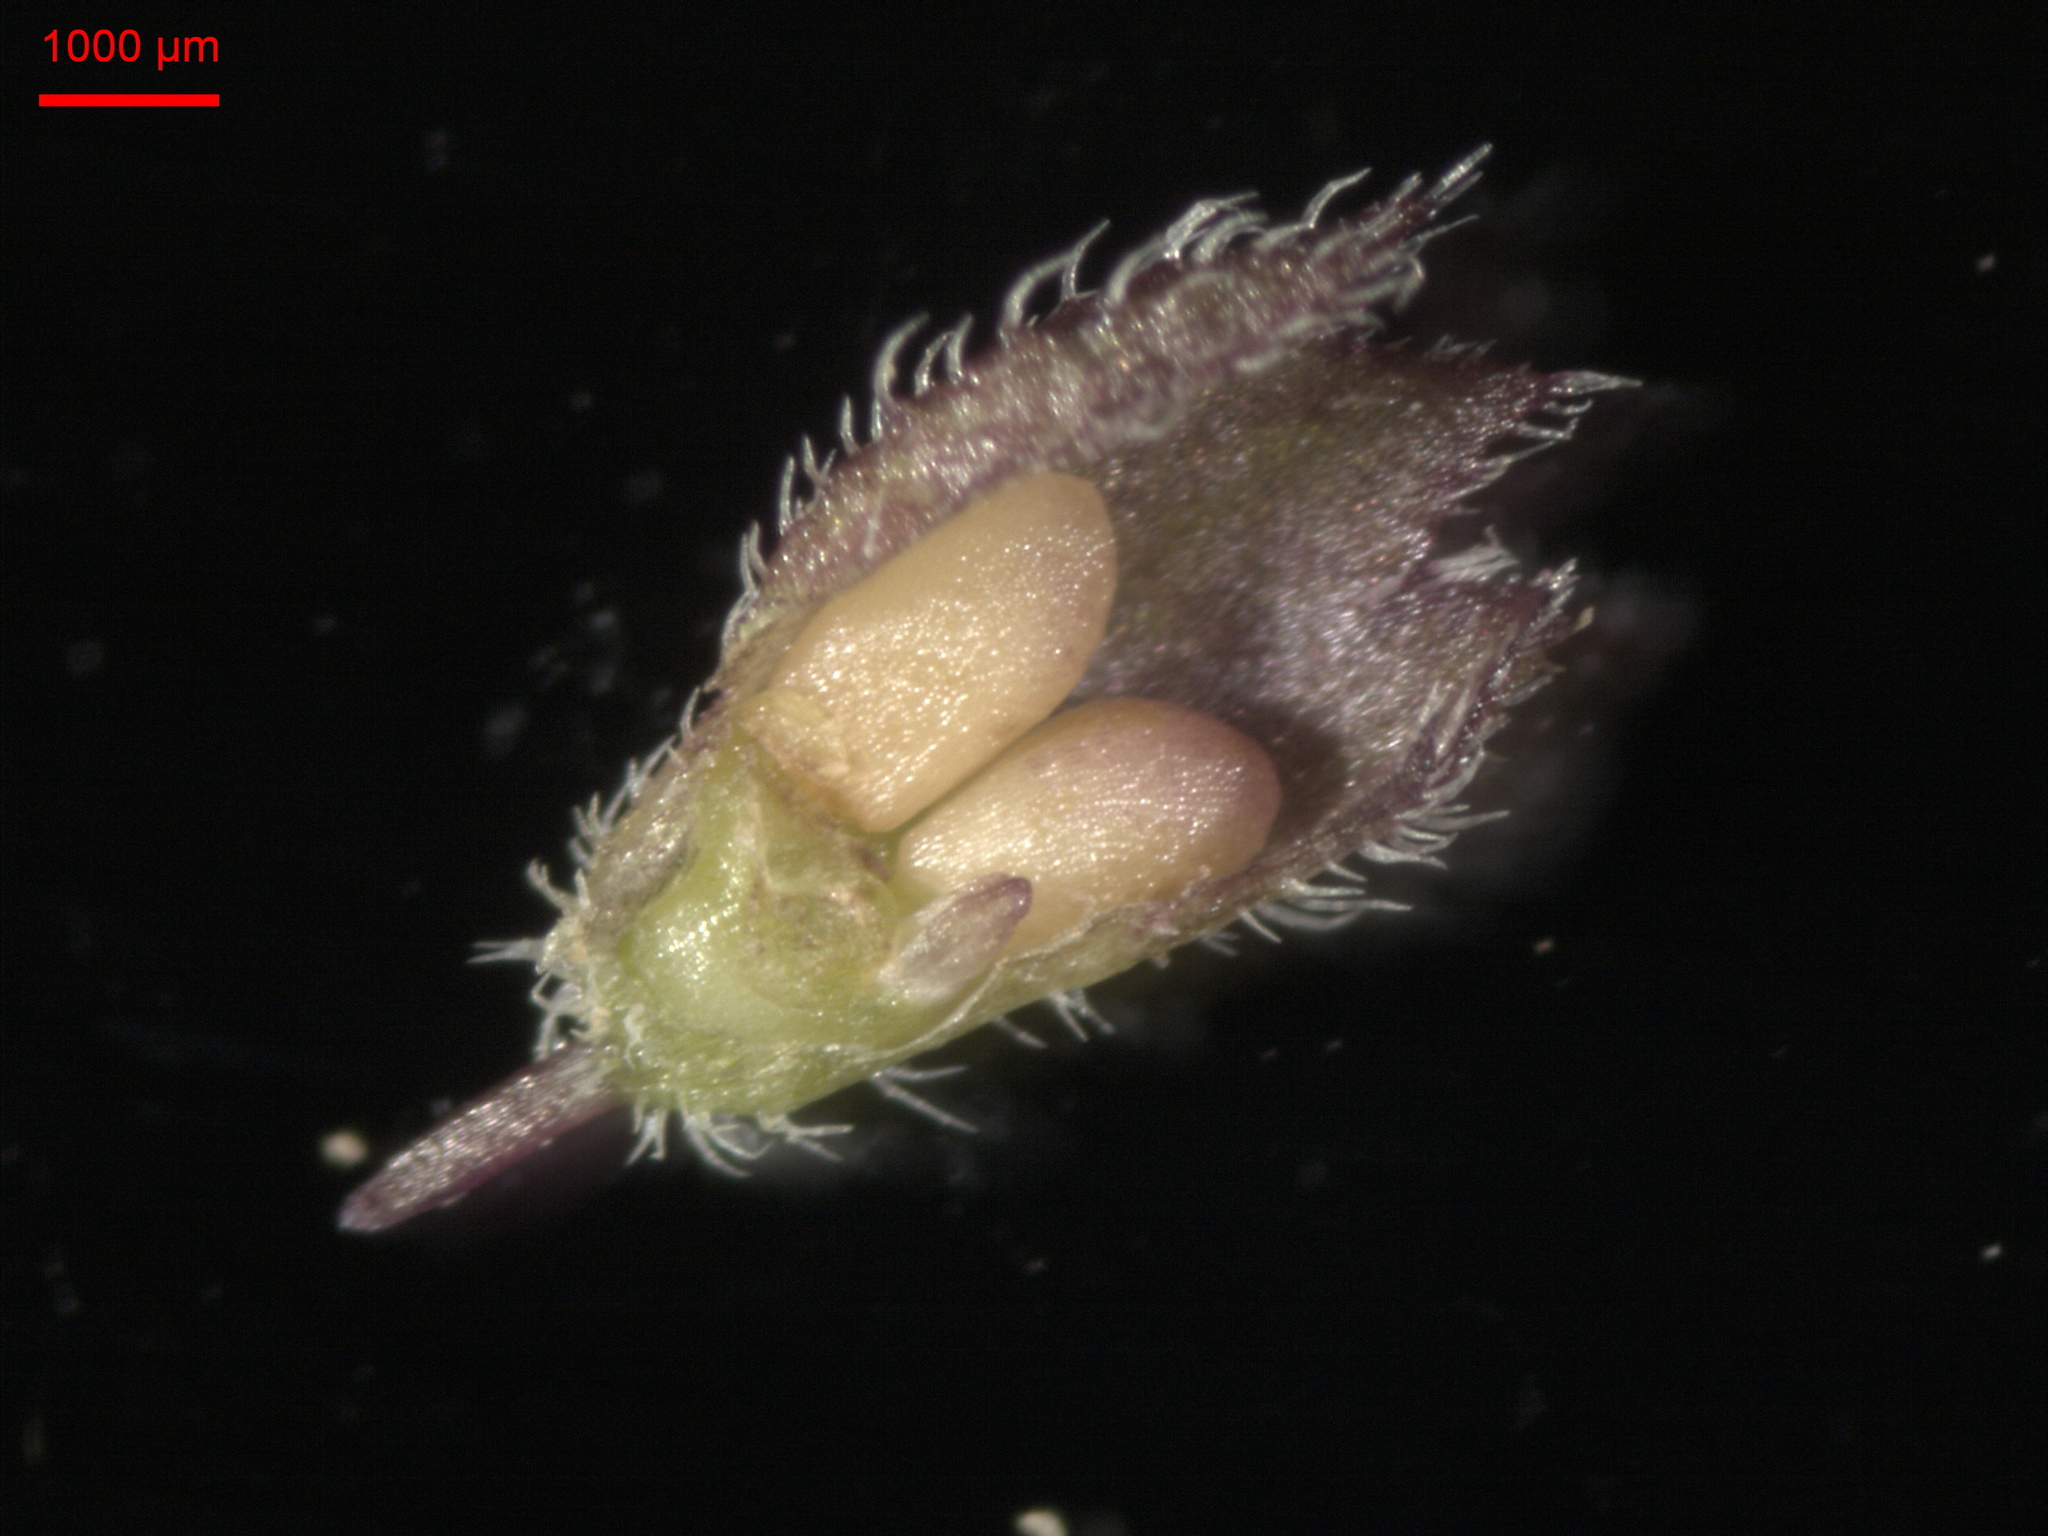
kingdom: Plantae
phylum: Tracheophyta
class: Magnoliopsida
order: Lamiales
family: Lamiaceae
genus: Mentha
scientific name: Mentha arvensis
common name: Corn mint
